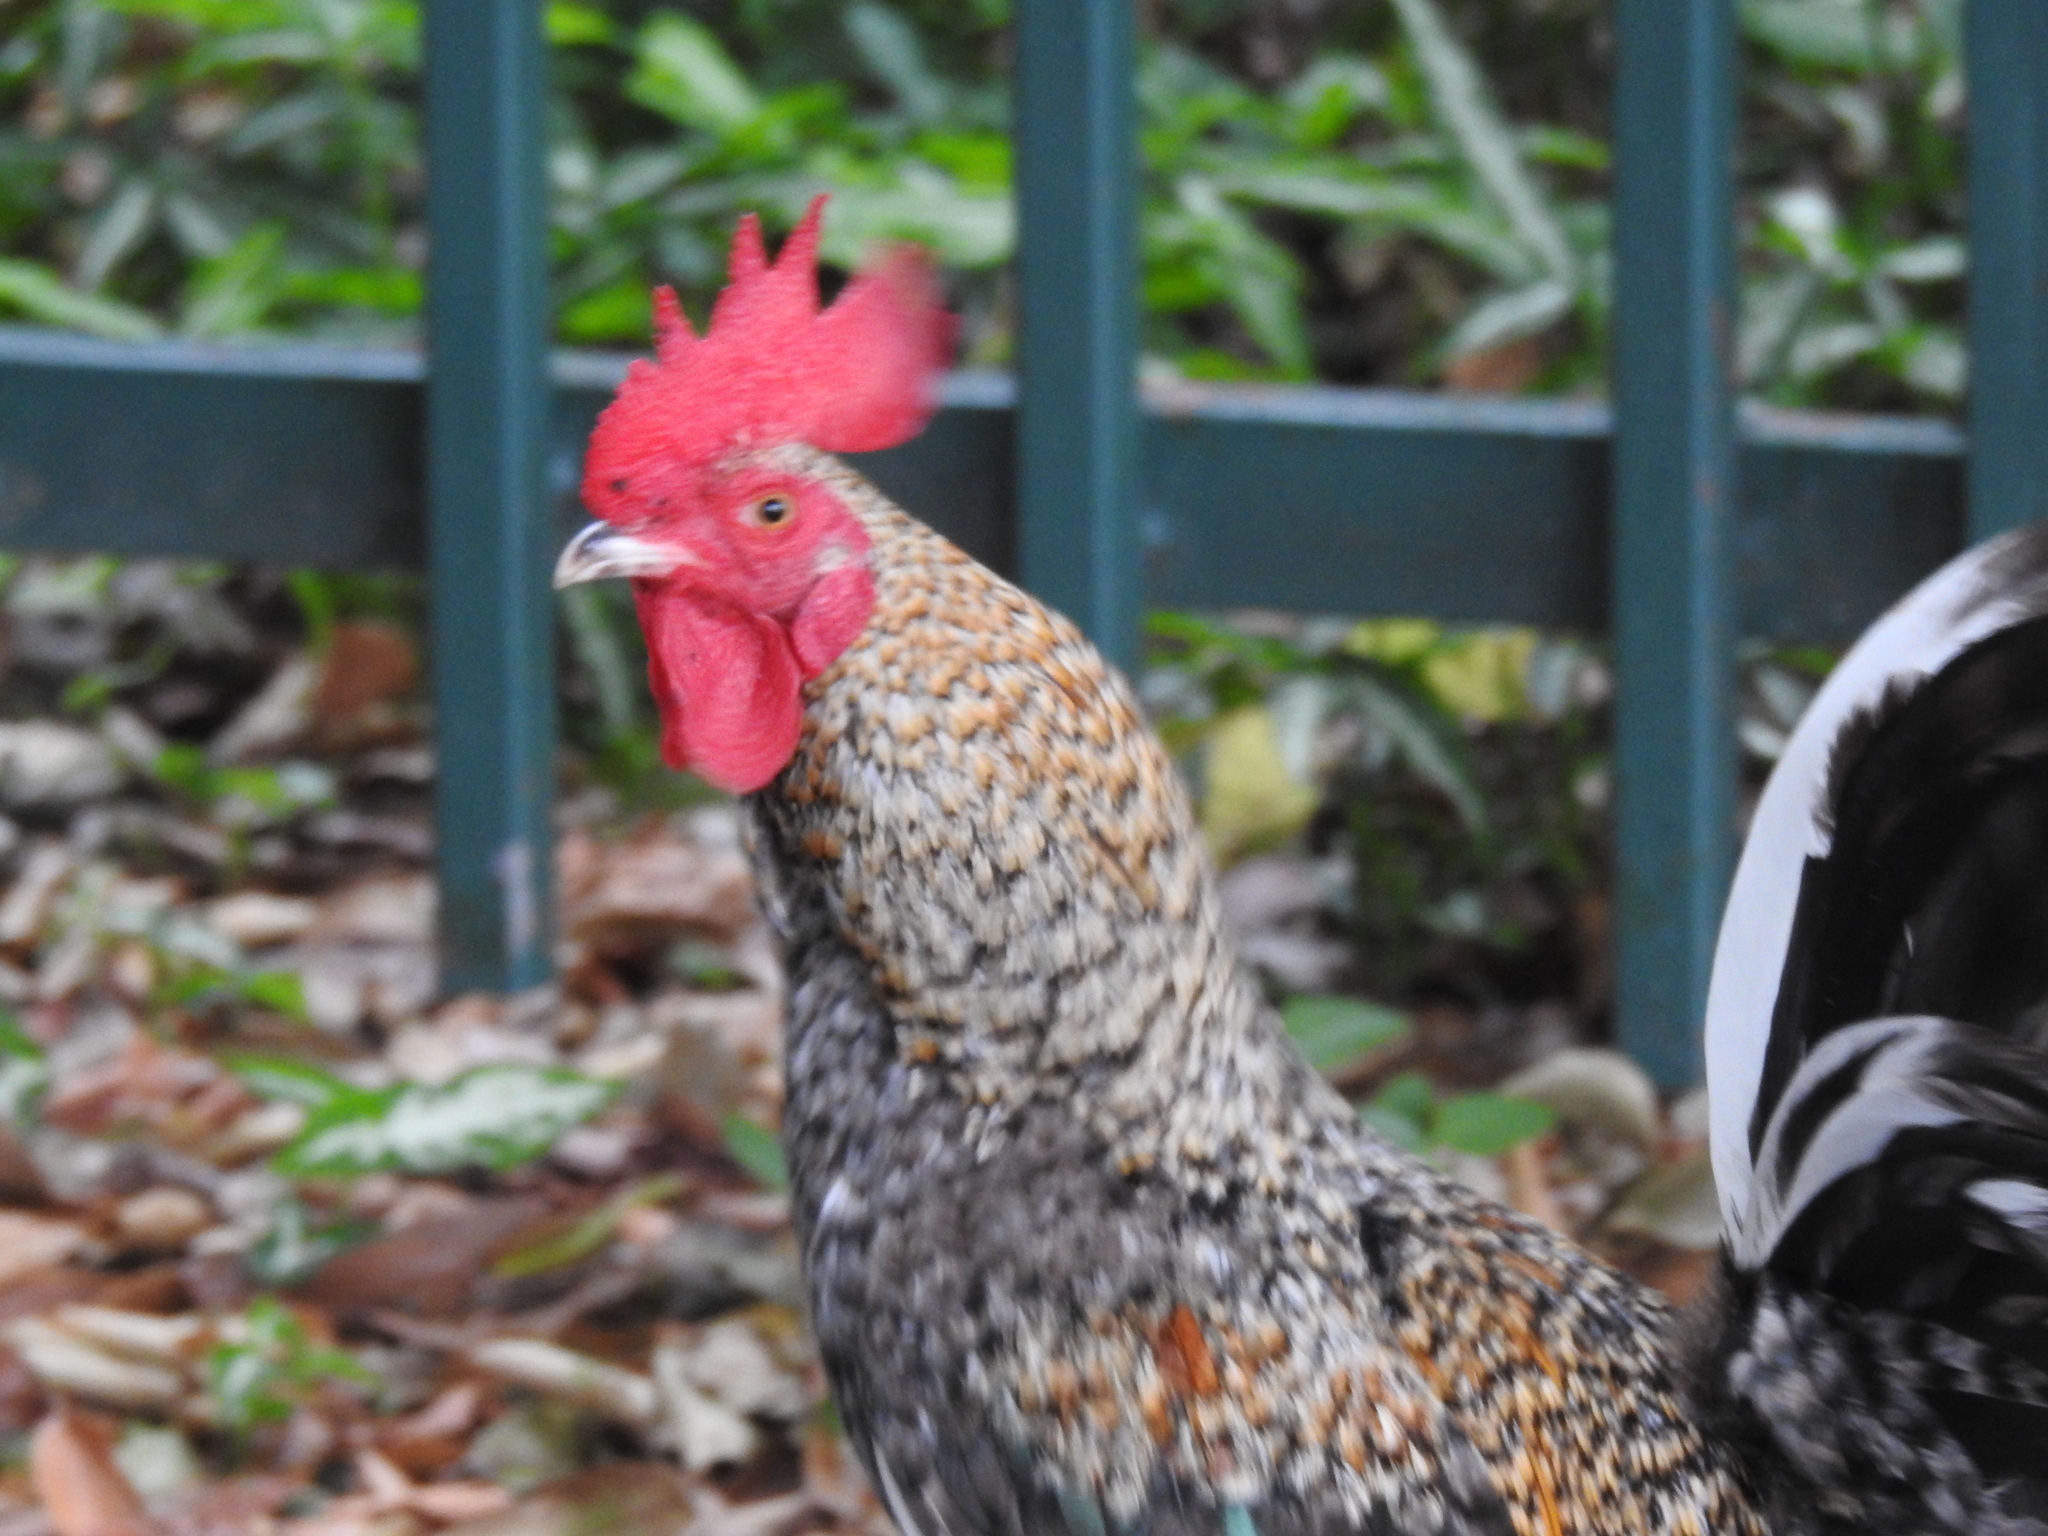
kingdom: Animalia
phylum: Chordata
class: Aves
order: Galliformes
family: Phasianidae
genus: Gallus
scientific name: Gallus gallus
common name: Red junglefowl
